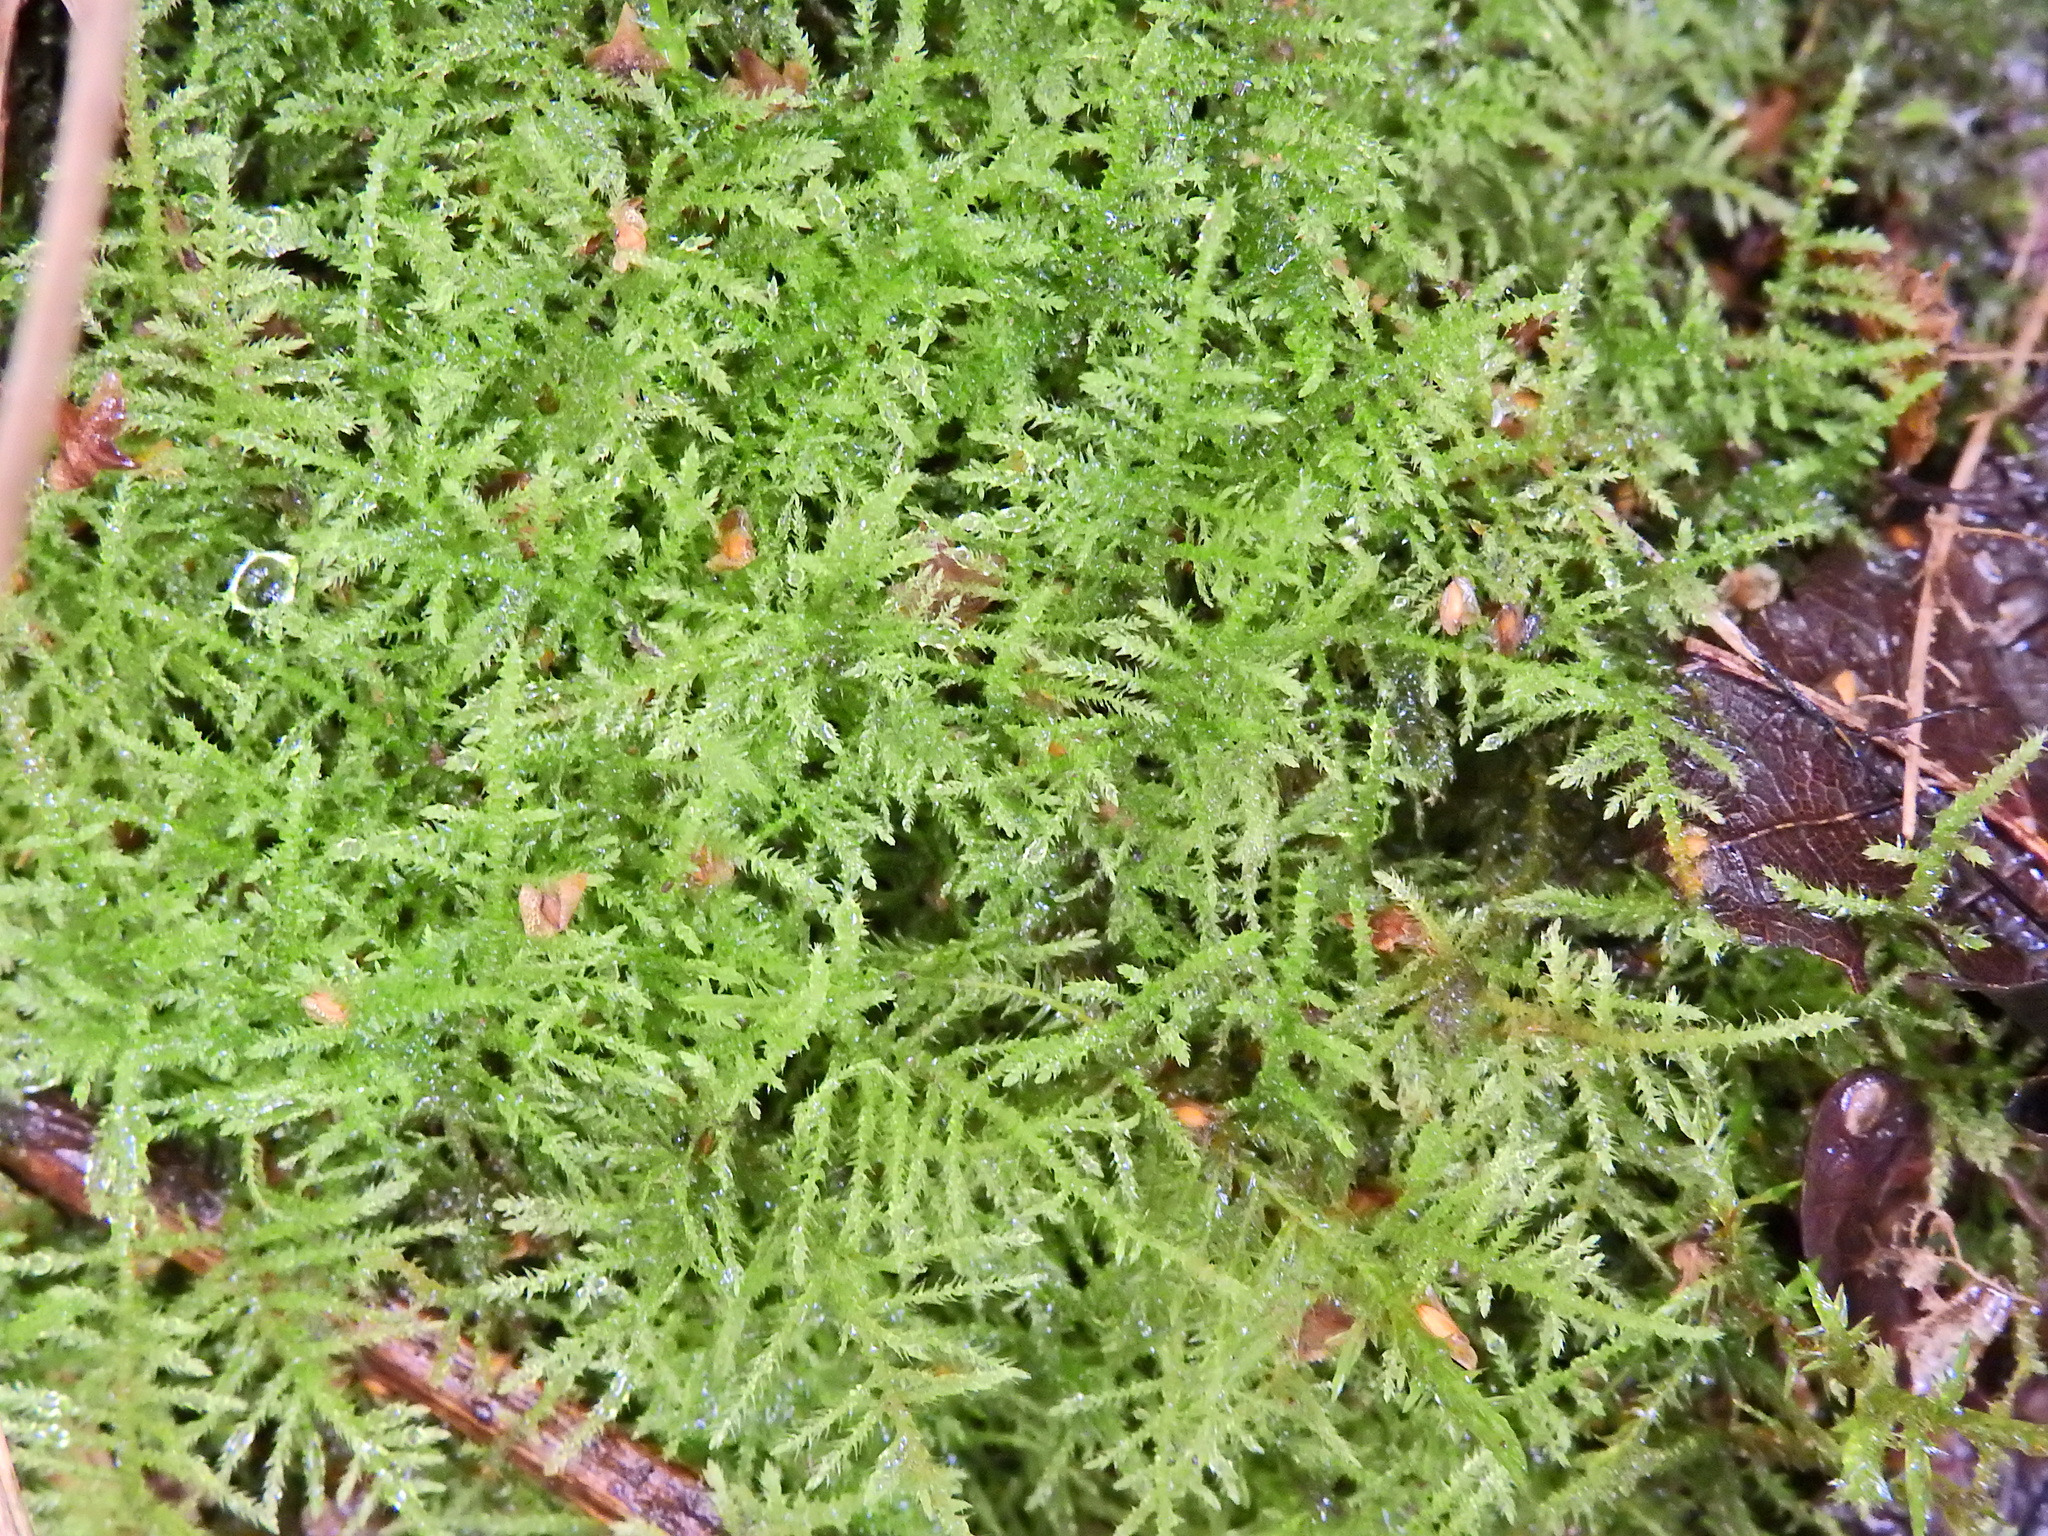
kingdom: Plantae
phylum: Bryophyta
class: Bryopsida
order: Hypnales
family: Brachytheciaceae
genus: Kindbergia
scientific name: Kindbergia praelonga
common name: Slender beaked moss
